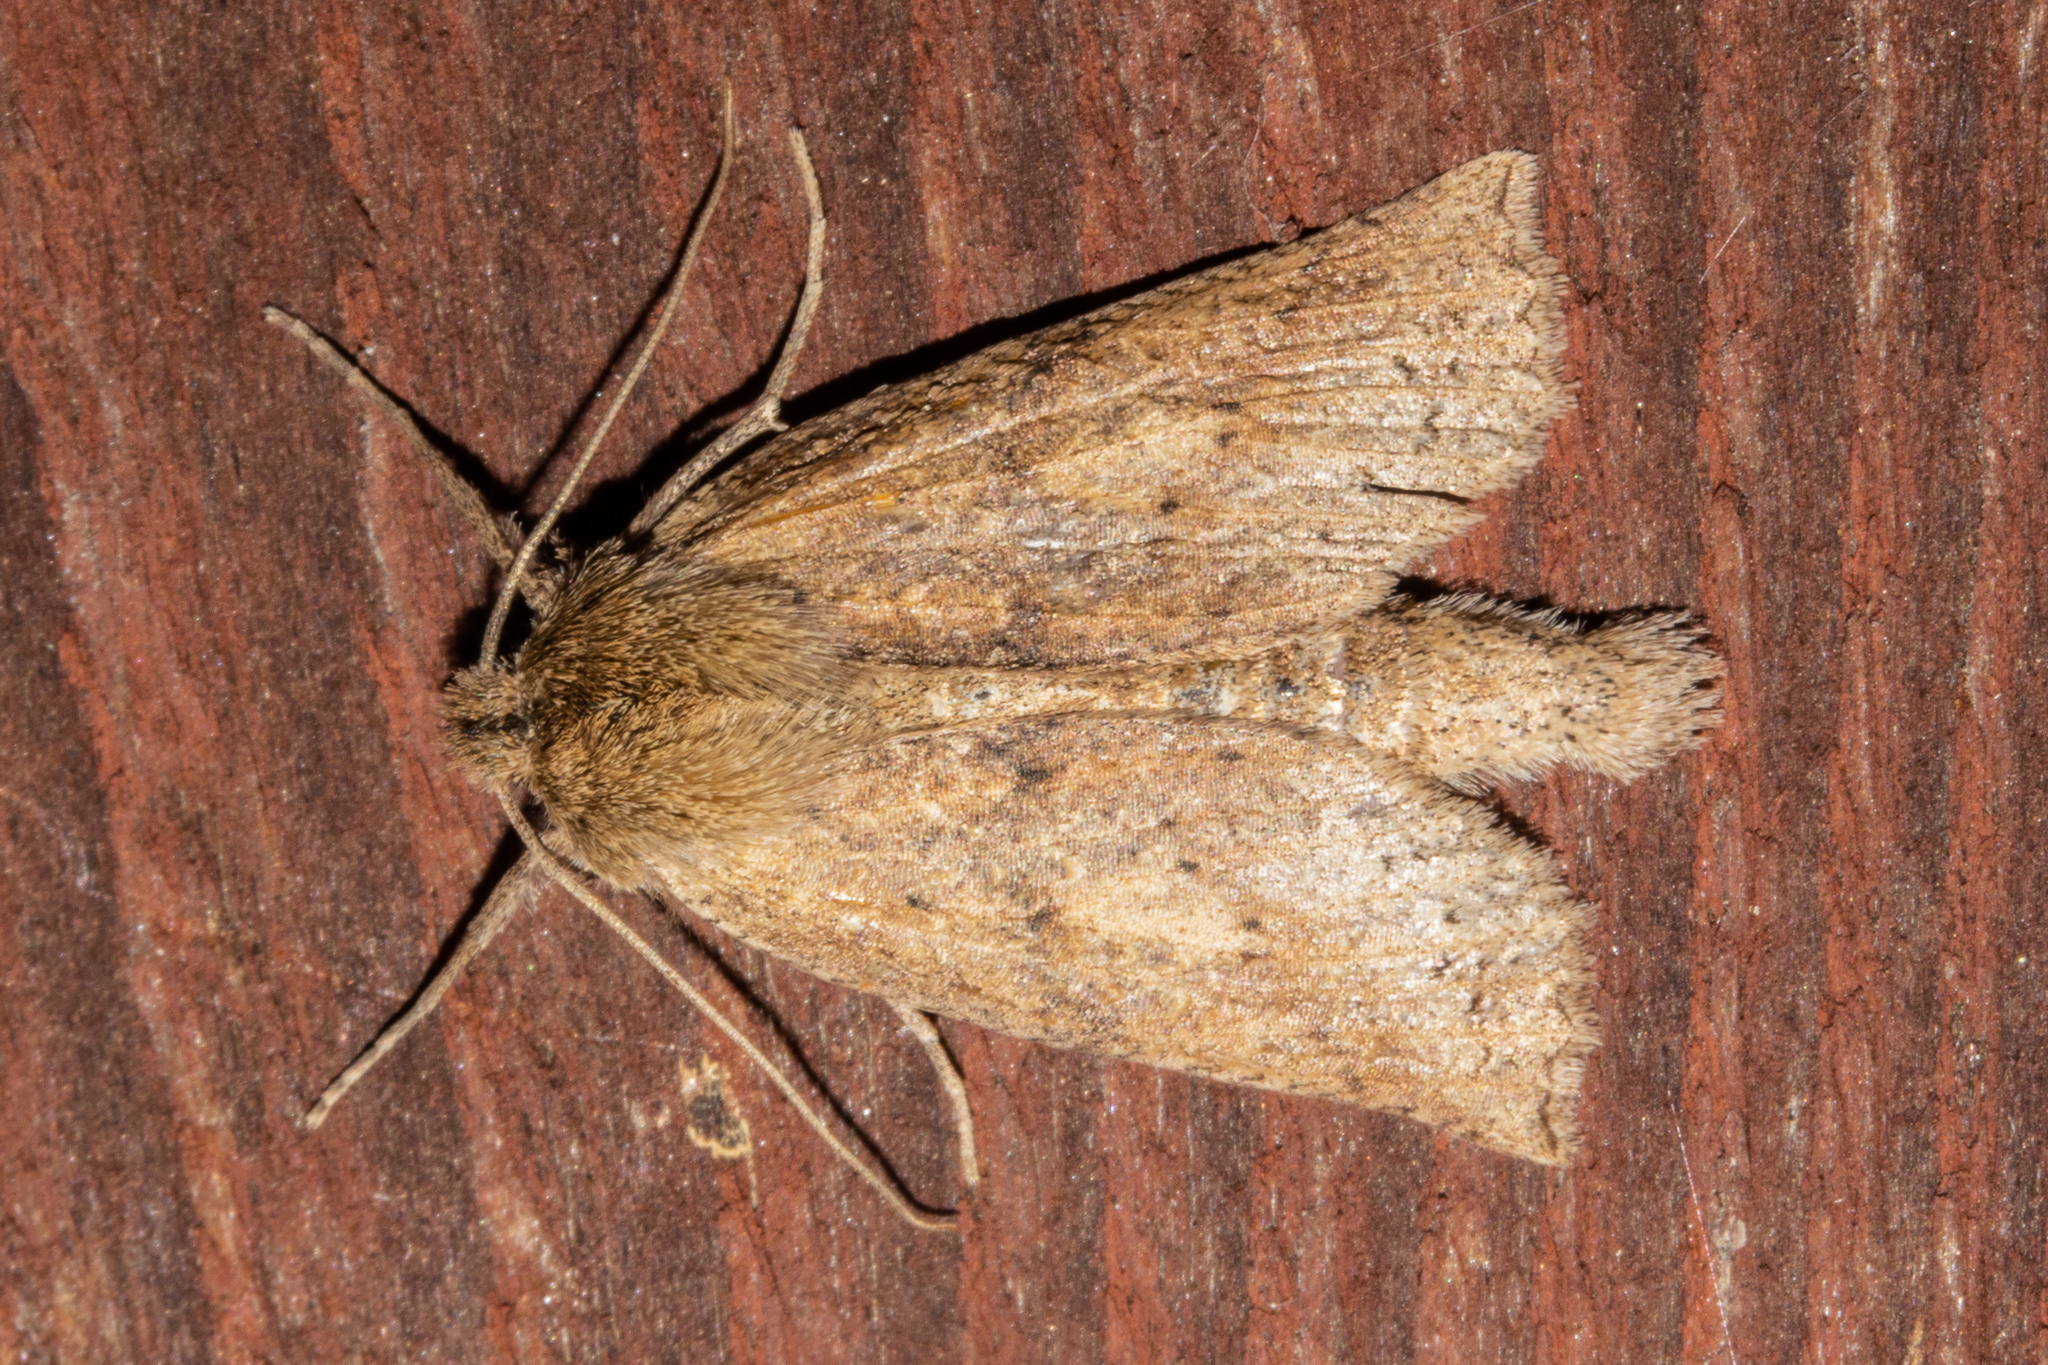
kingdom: Animalia
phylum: Arthropoda
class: Insecta
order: Lepidoptera
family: Geometridae
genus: Declana
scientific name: Declana leptomera
